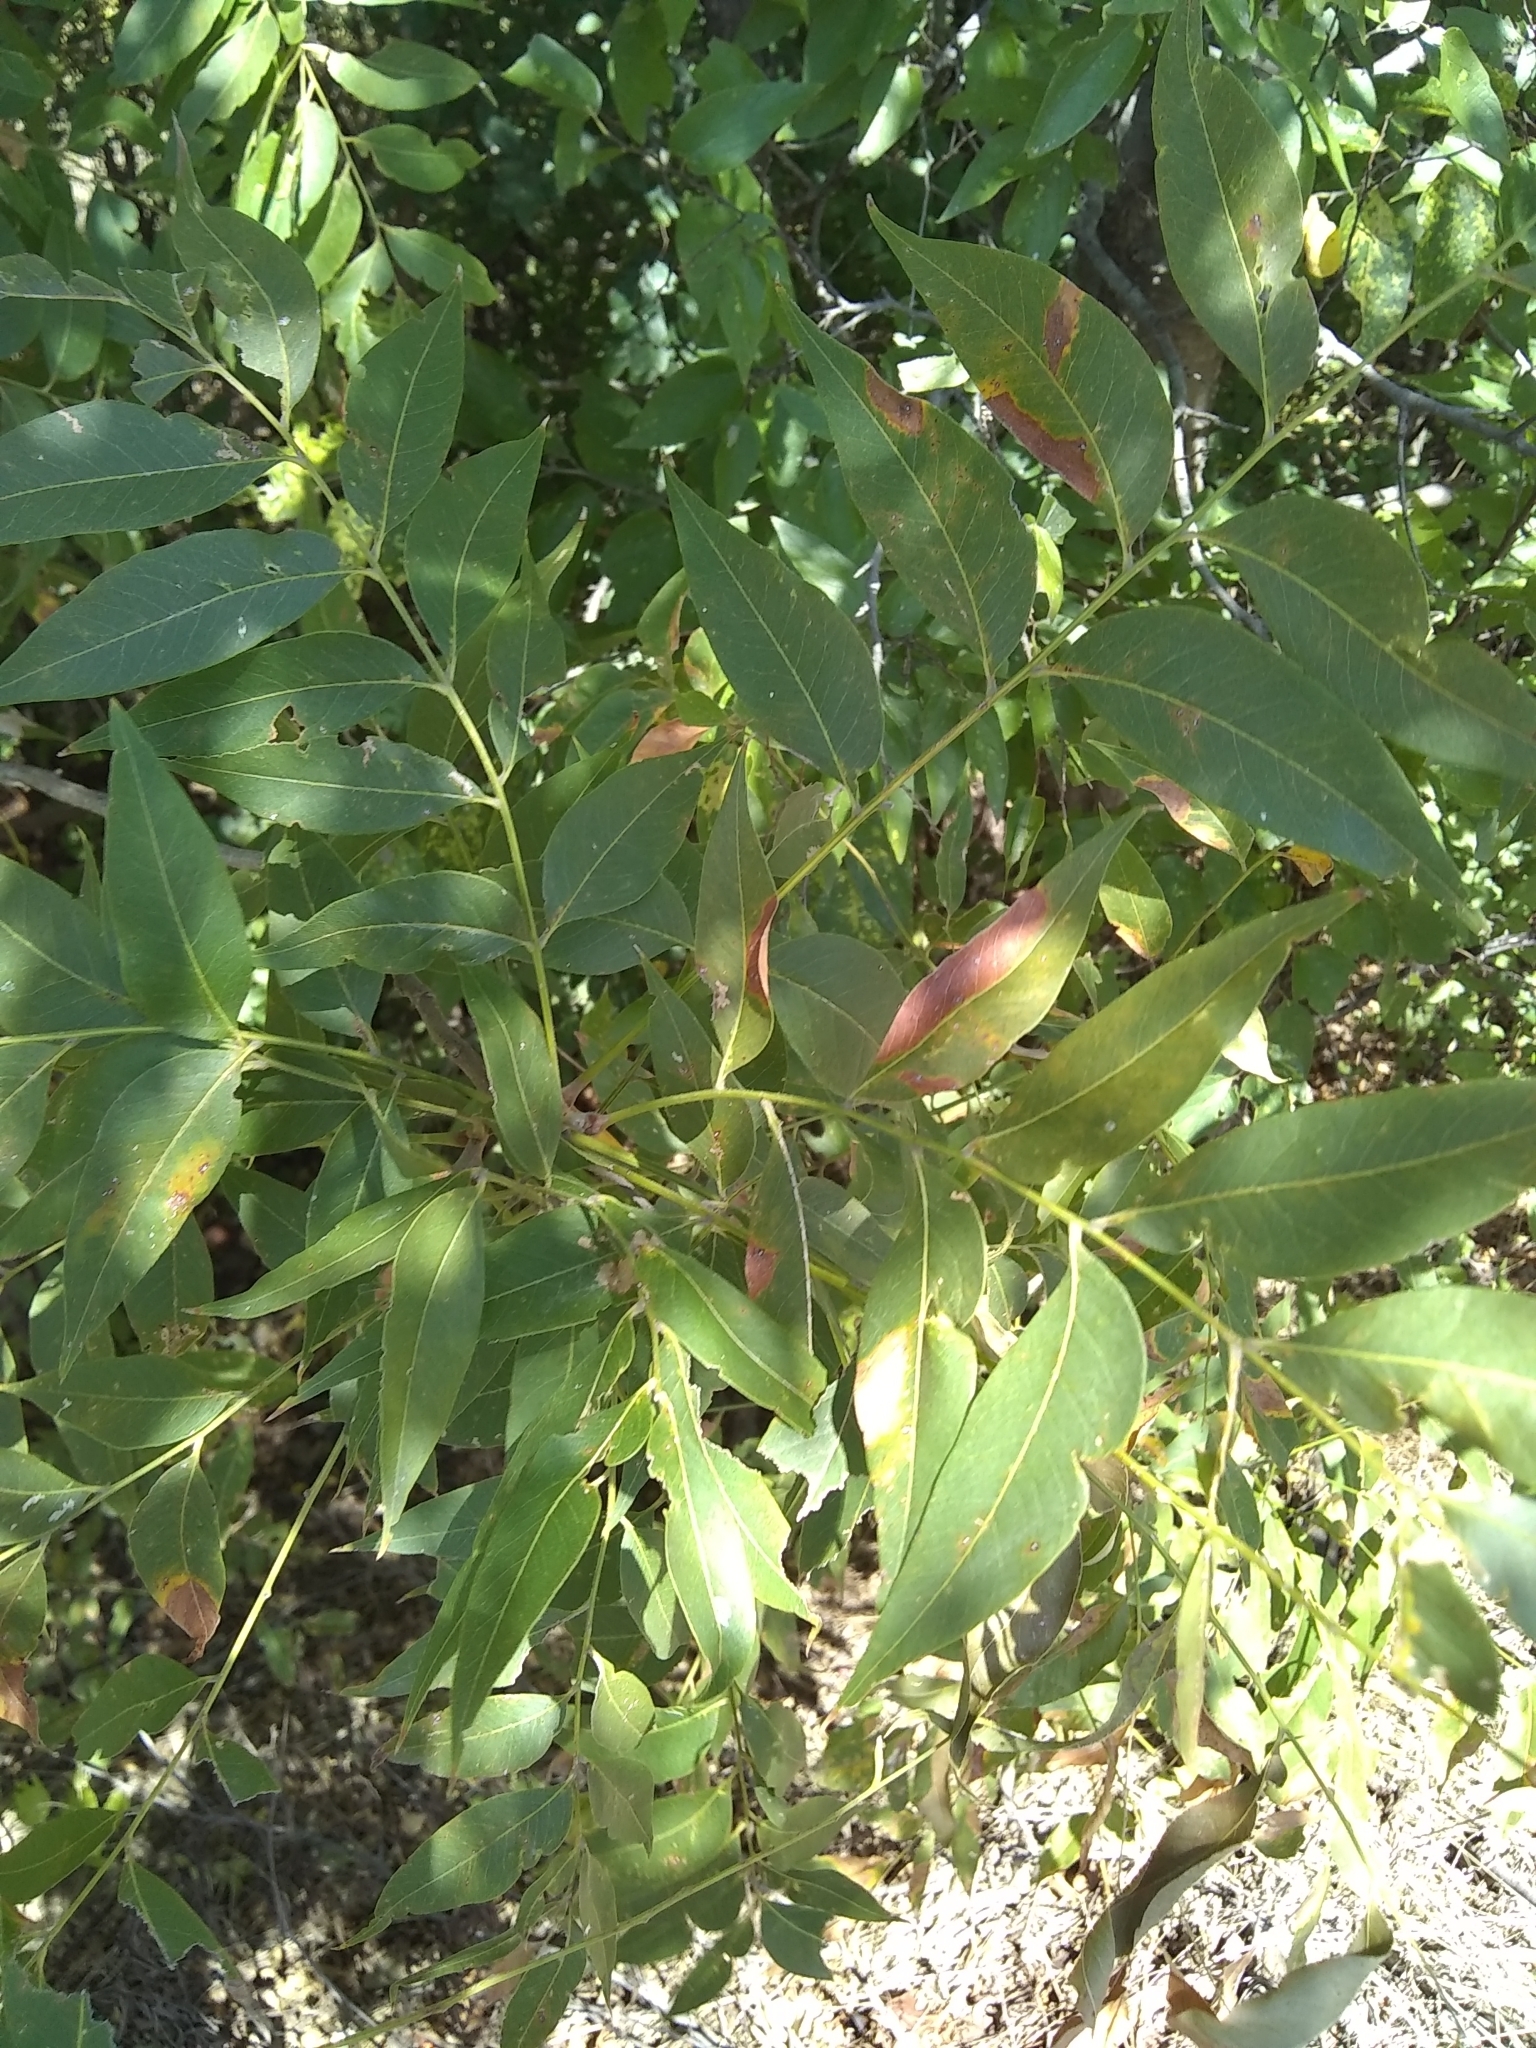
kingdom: Plantae
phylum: Tracheophyta
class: Magnoliopsida
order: Sapindales
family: Sapindaceae
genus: Sapindus
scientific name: Sapindus drummondii
